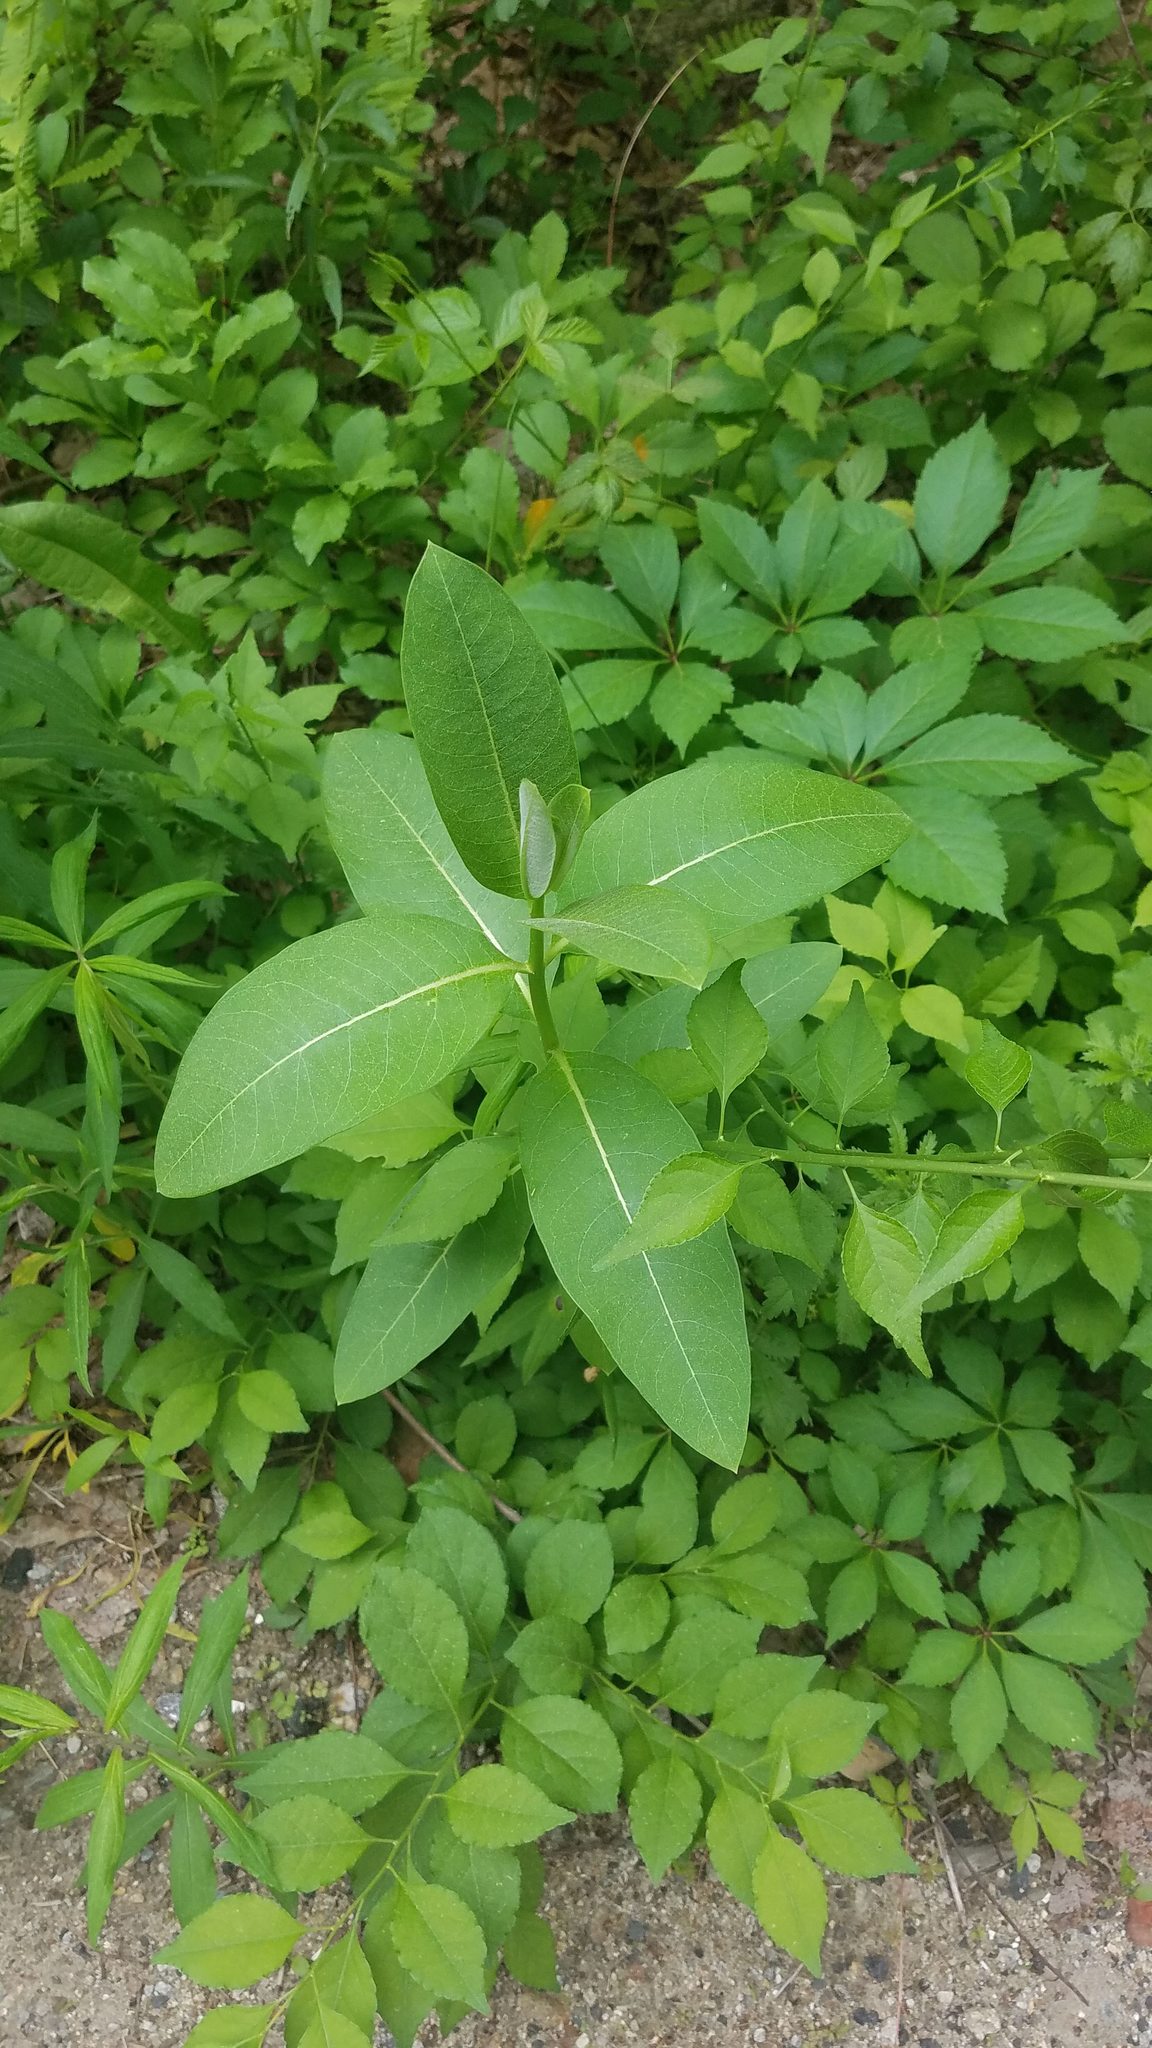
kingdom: Plantae
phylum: Tracheophyta
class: Magnoliopsida
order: Gentianales
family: Apocynaceae
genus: Asclepias
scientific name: Asclepias syriaca
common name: Common milkweed
